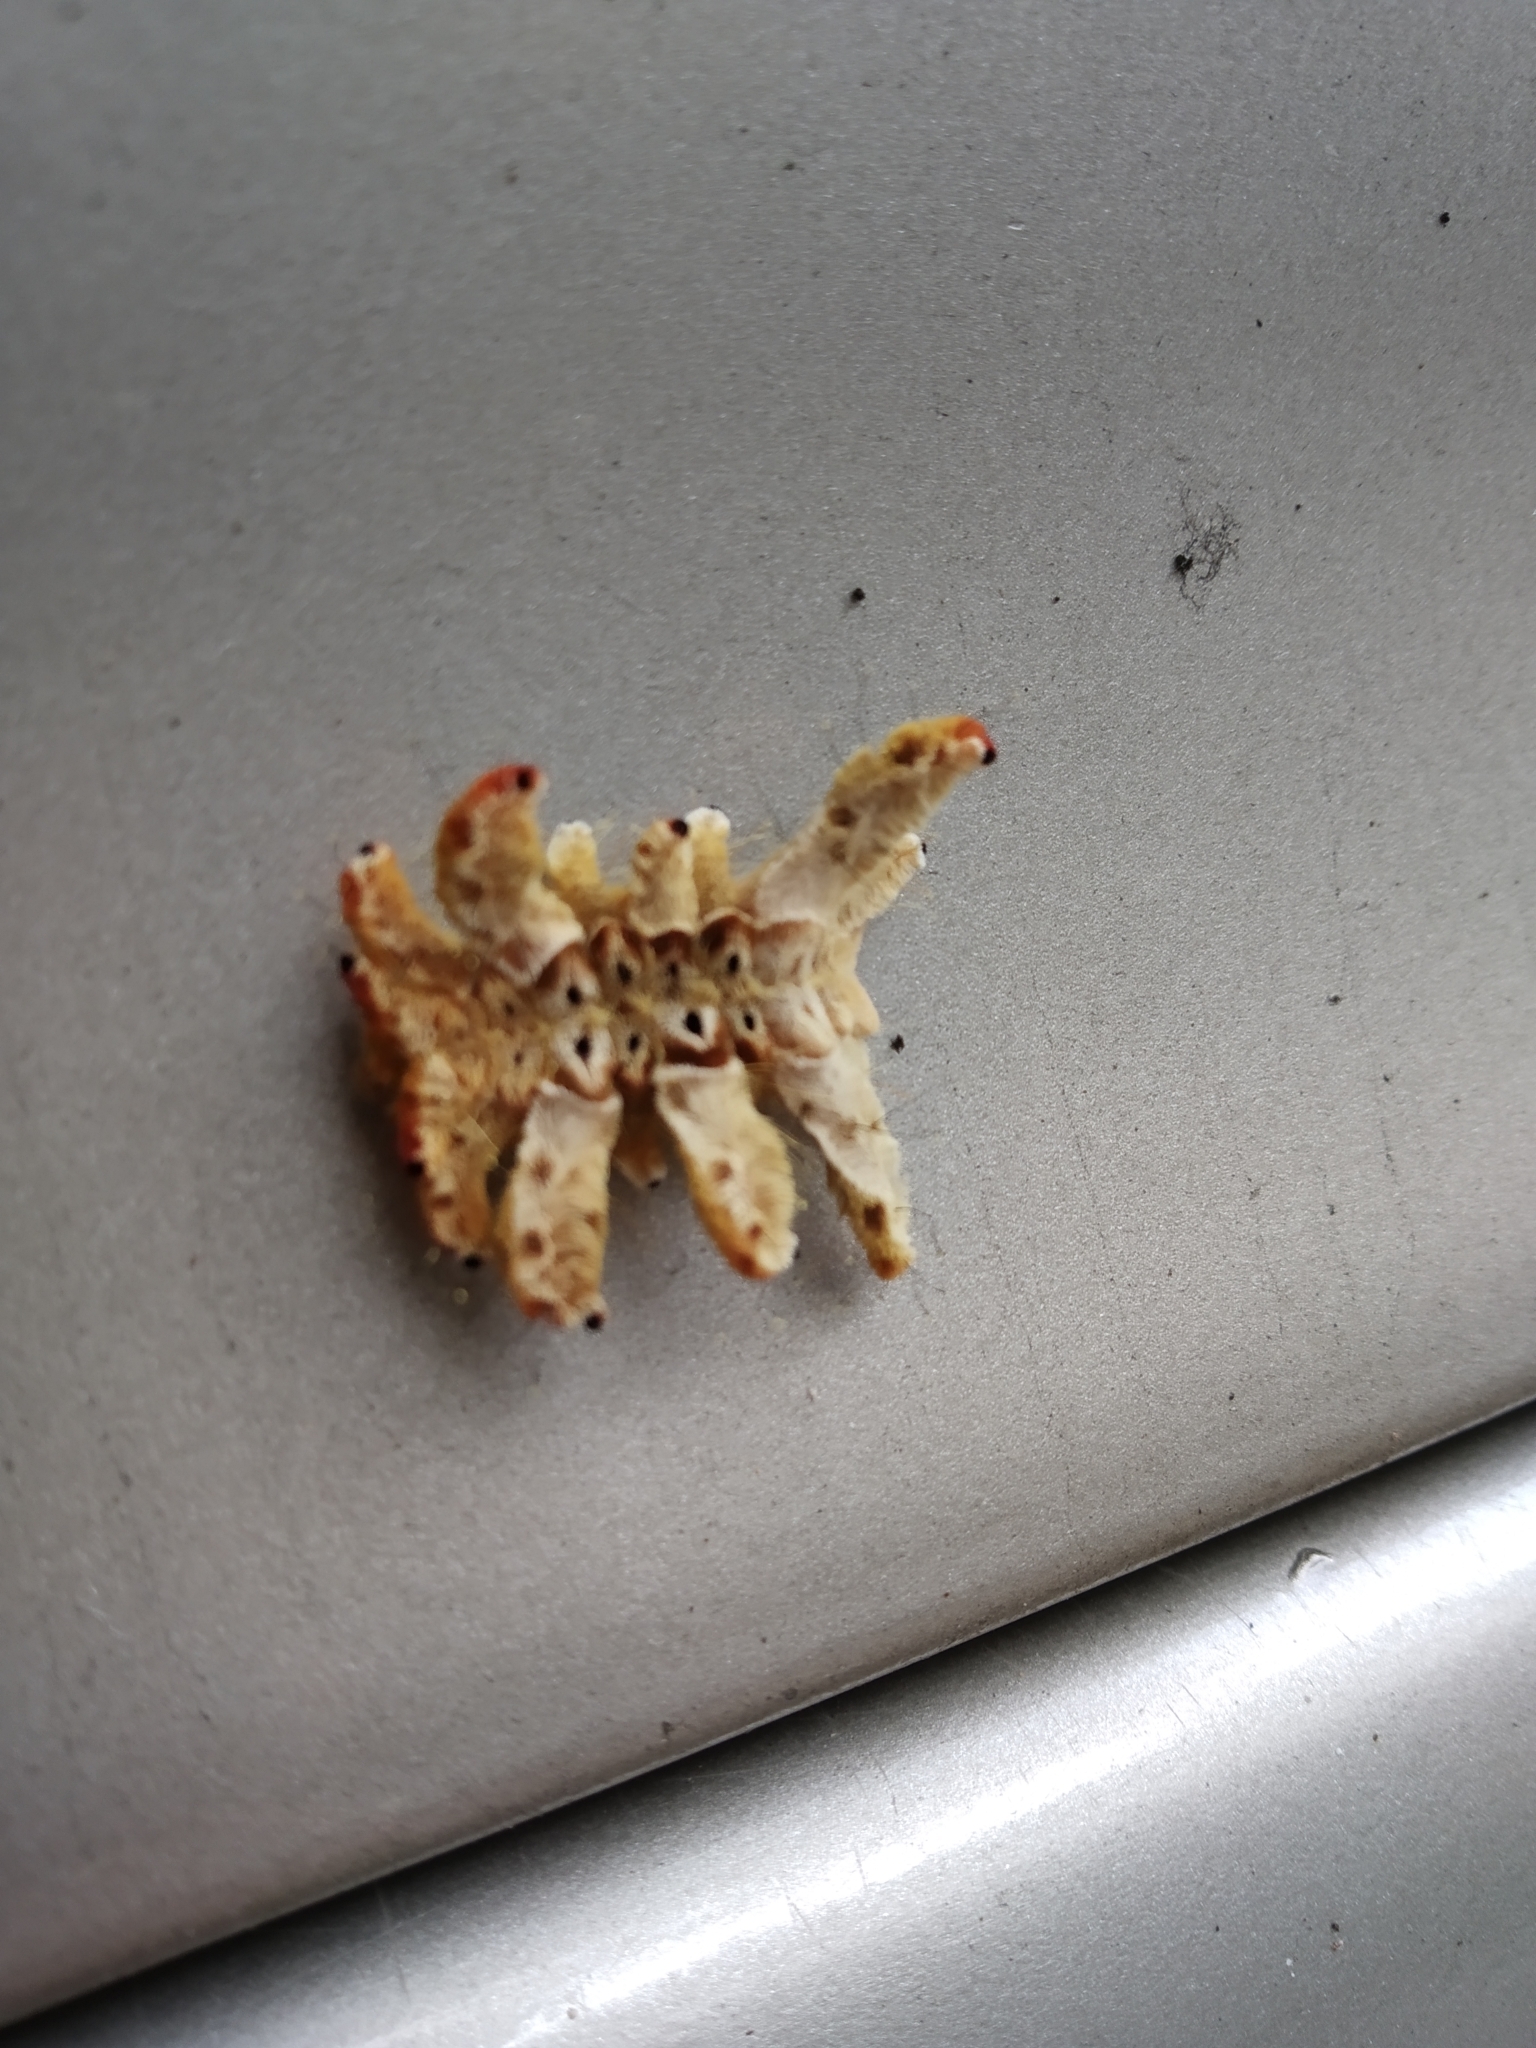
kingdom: Animalia
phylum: Arthropoda
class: Insecta
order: Lepidoptera
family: Limacodidae
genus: Phobetron
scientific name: Phobetron hipparchia
